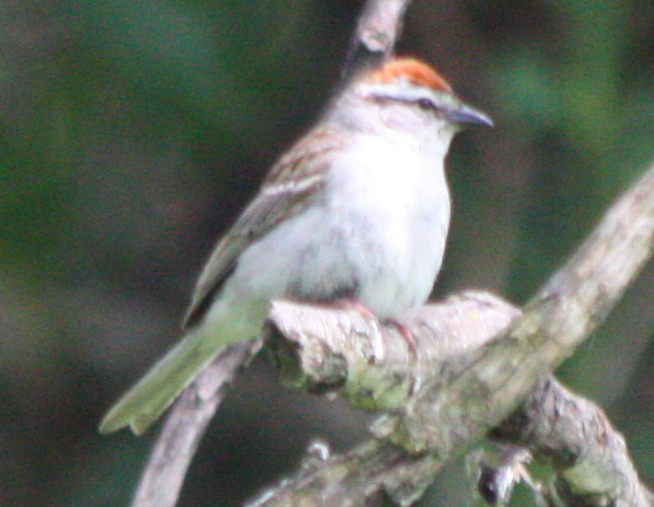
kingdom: Animalia
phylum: Chordata
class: Aves
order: Passeriformes
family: Passerellidae
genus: Spizella
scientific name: Spizella passerina
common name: Chipping sparrow
